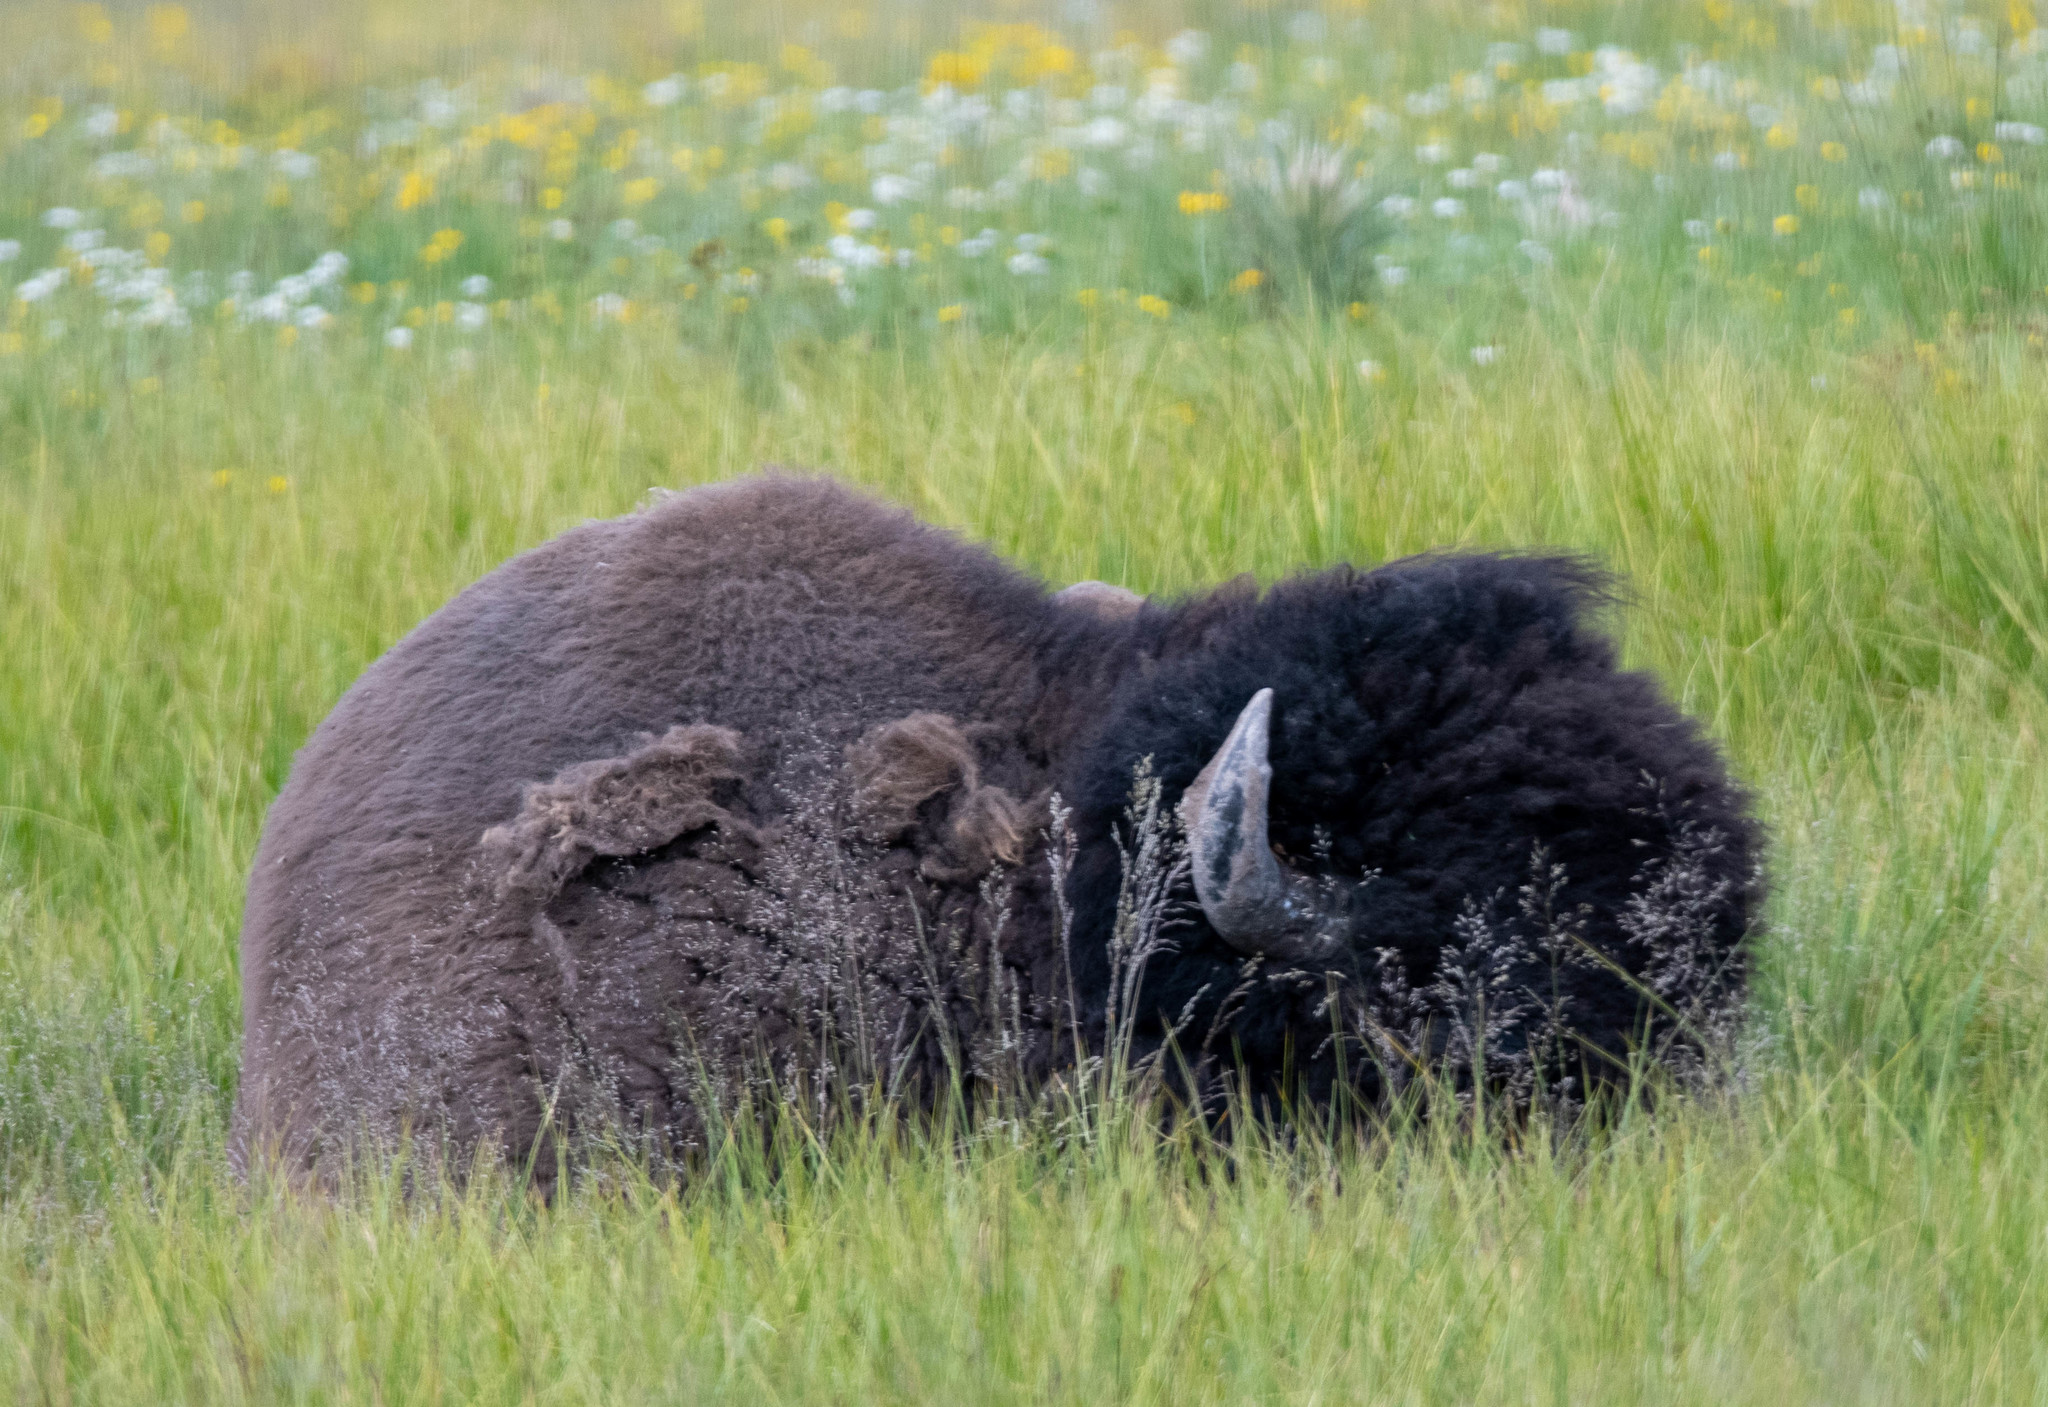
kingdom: Animalia
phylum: Chordata
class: Mammalia
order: Artiodactyla
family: Bovidae
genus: Bison
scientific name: Bison bison
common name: American bison
